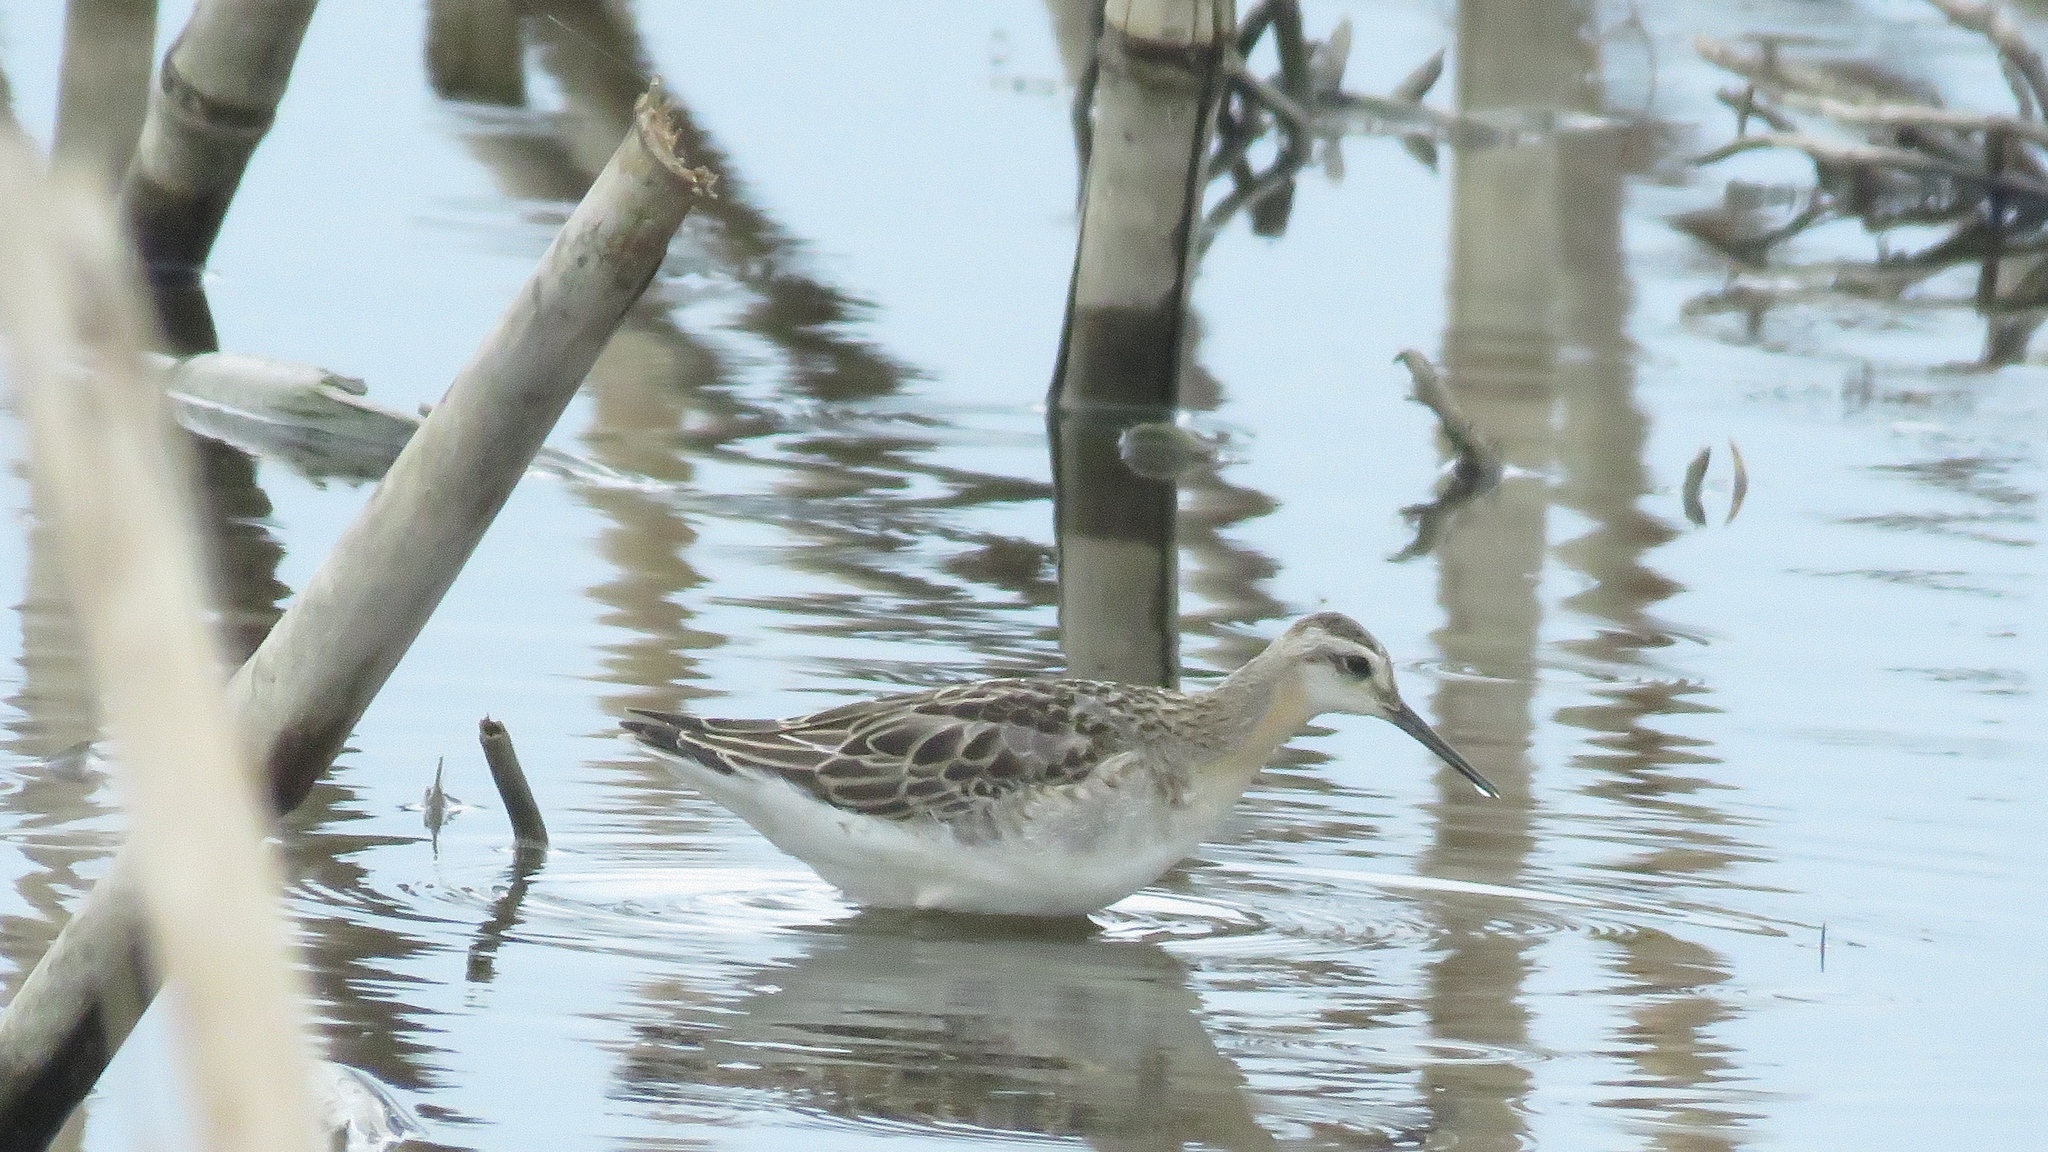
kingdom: Animalia
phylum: Chordata
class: Aves
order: Charadriiformes
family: Scolopacidae
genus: Phalaropus
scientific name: Phalaropus tricolor
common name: Wilson's phalarope
